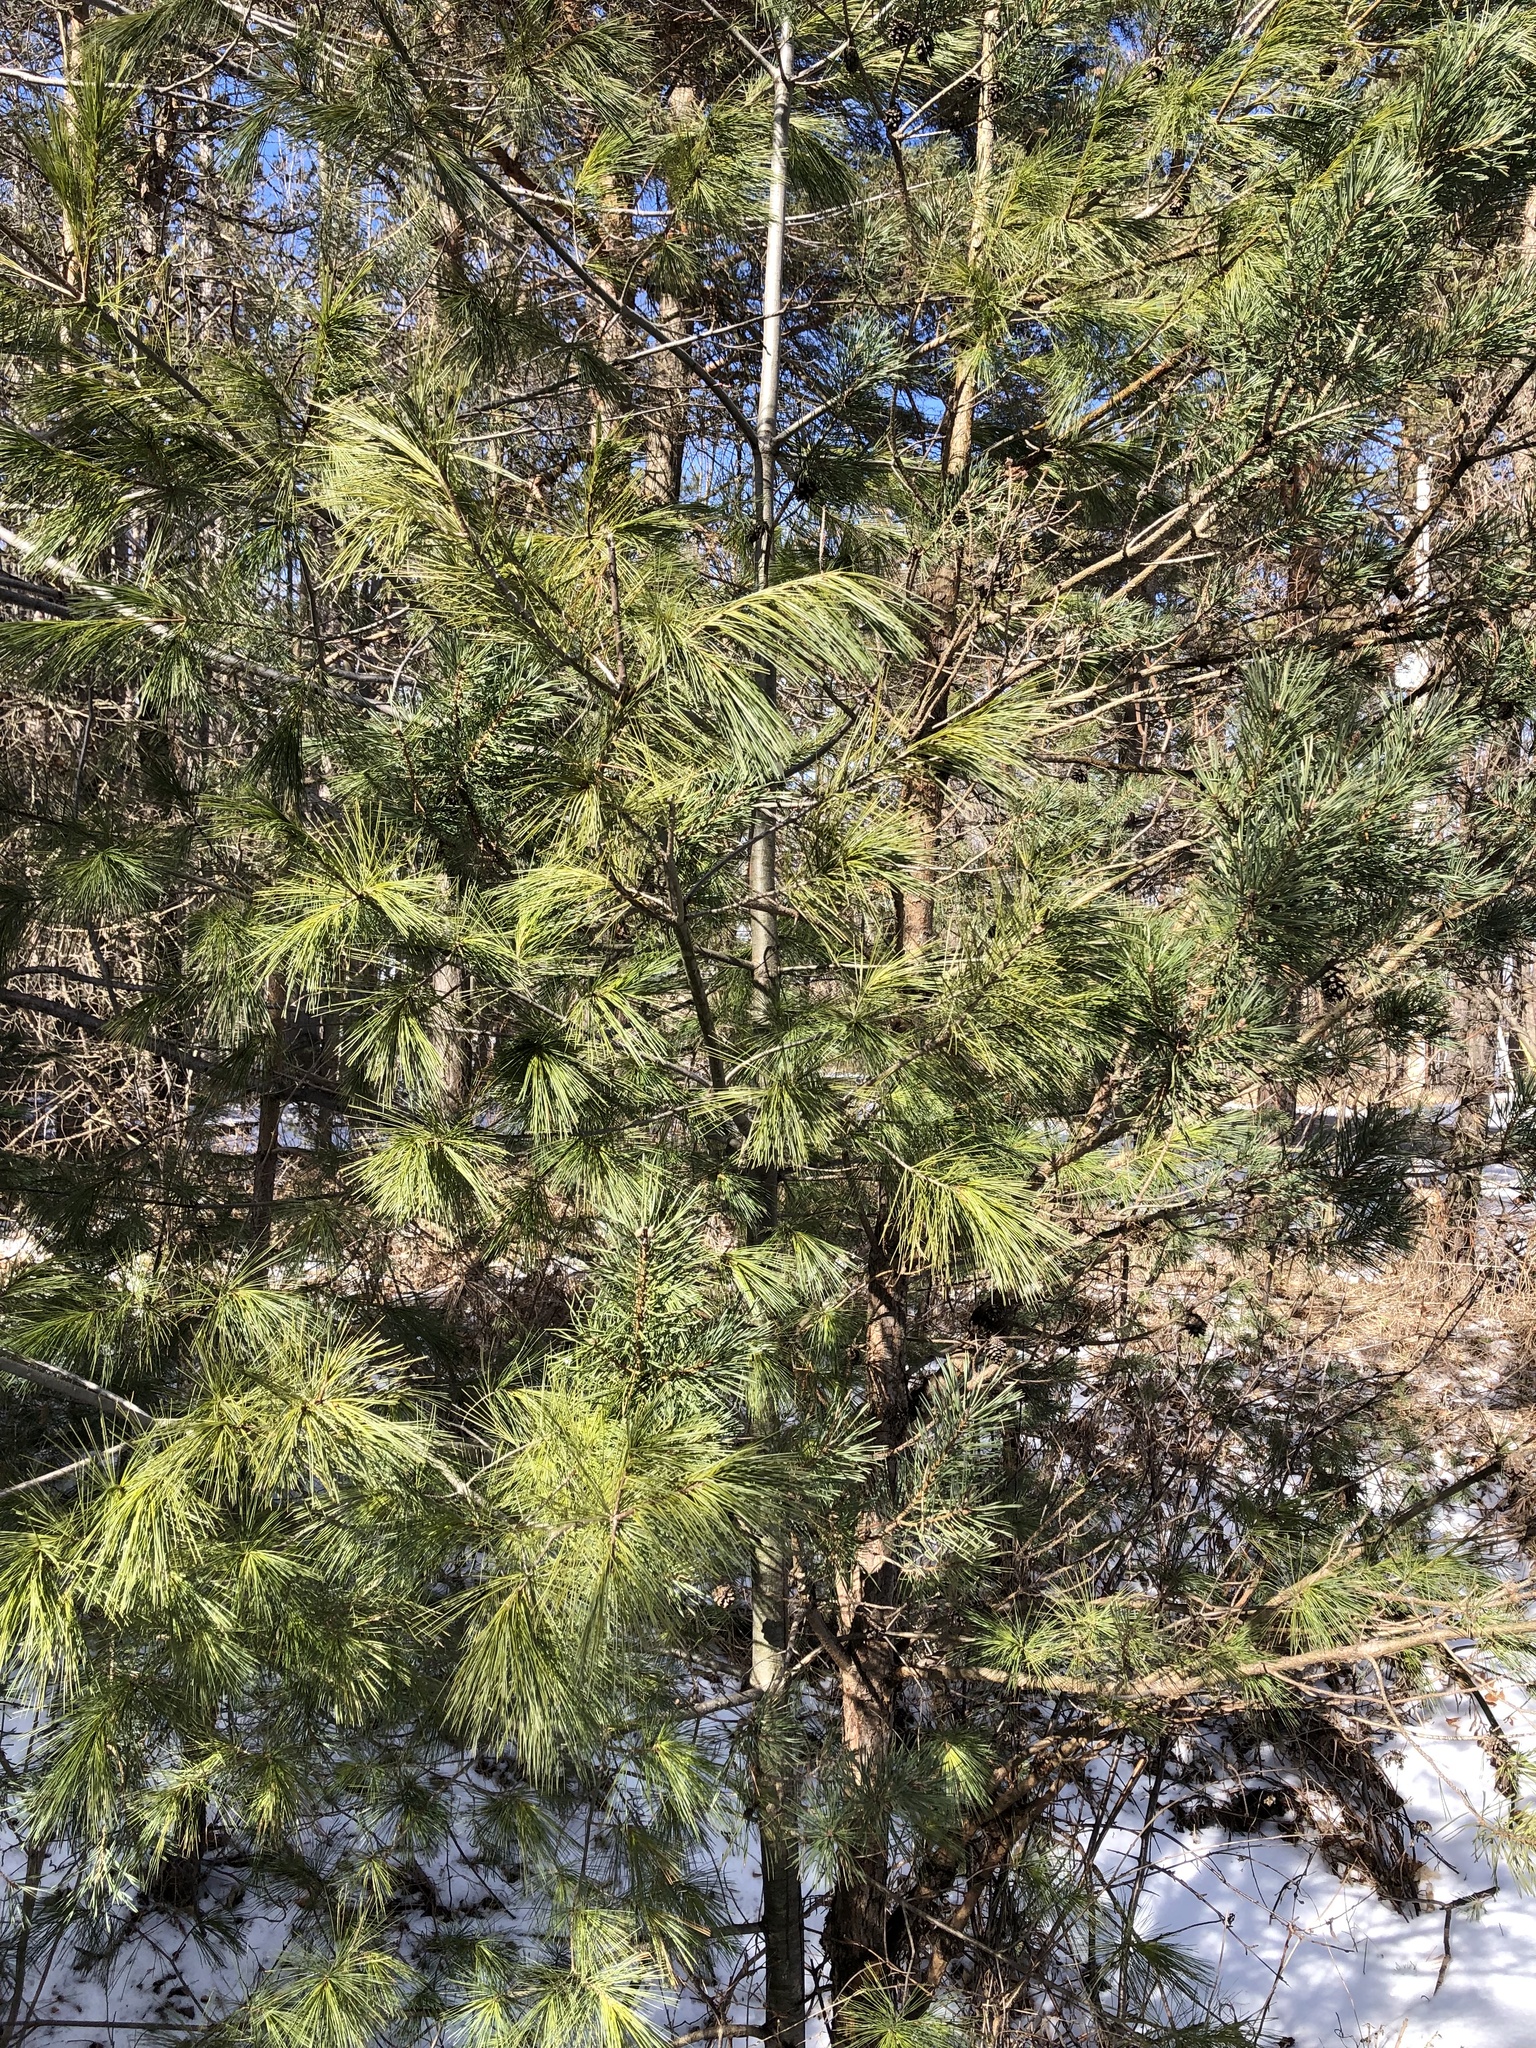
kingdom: Plantae
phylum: Tracheophyta
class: Pinopsida
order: Pinales
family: Pinaceae
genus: Pinus
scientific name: Pinus strobus
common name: Weymouth pine
